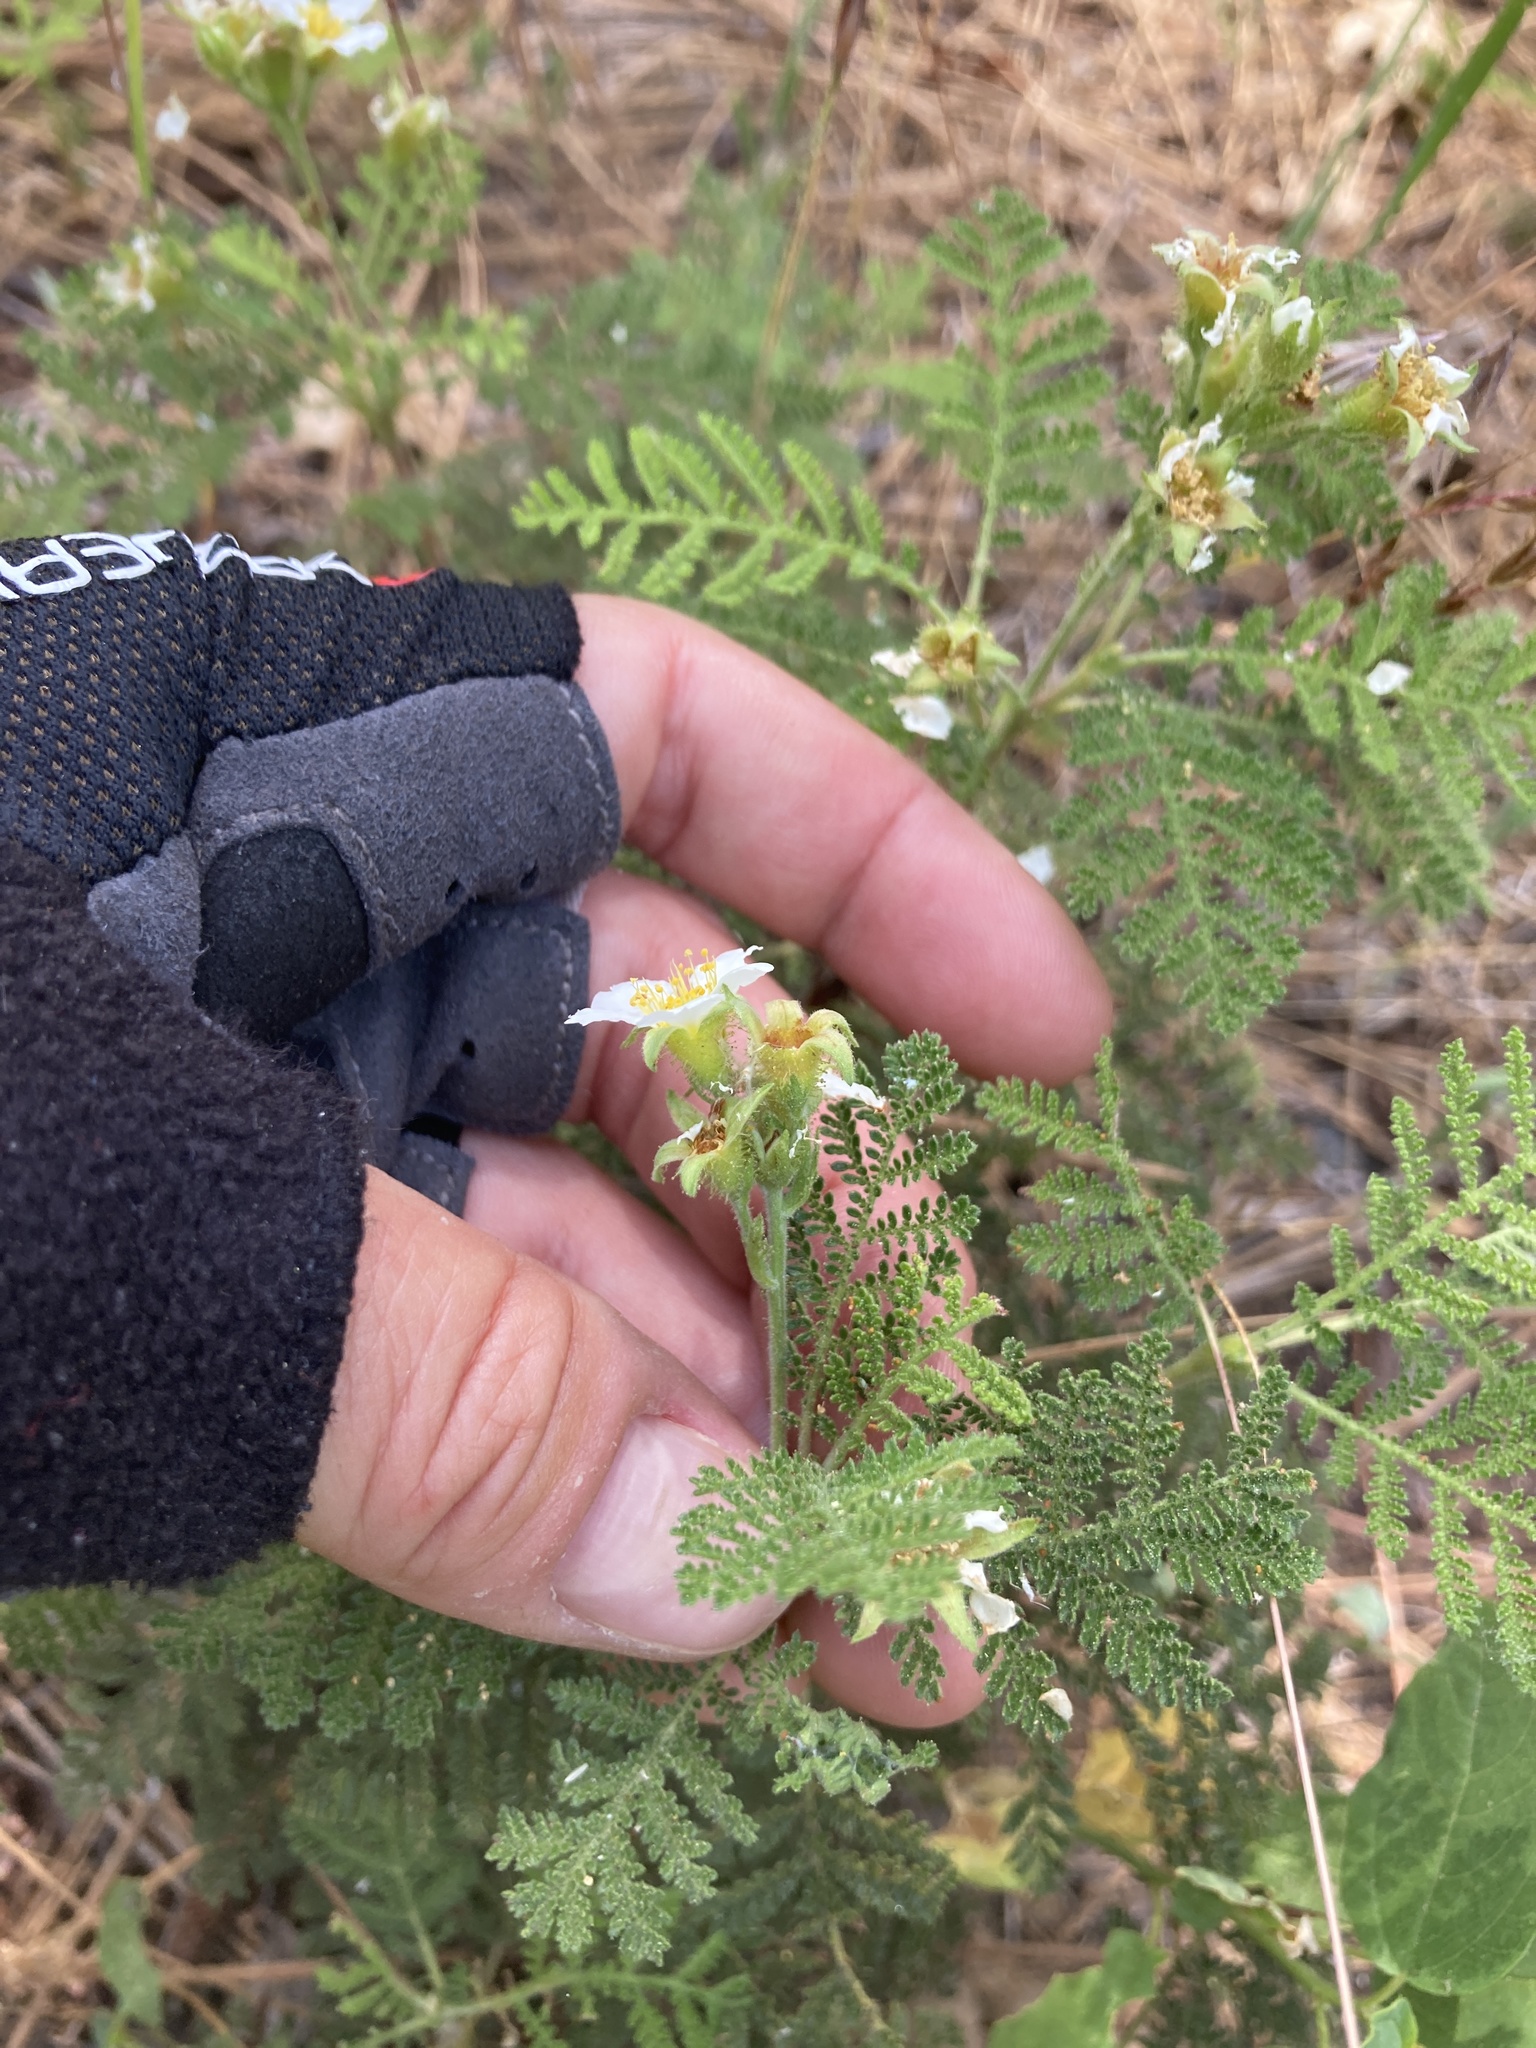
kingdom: Plantae
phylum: Tracheophyta
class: Magnoliopsida
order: Rosales
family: Rosaceae
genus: Chamaebatia
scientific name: Chamaebatia foliolosa
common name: Mountain misery
